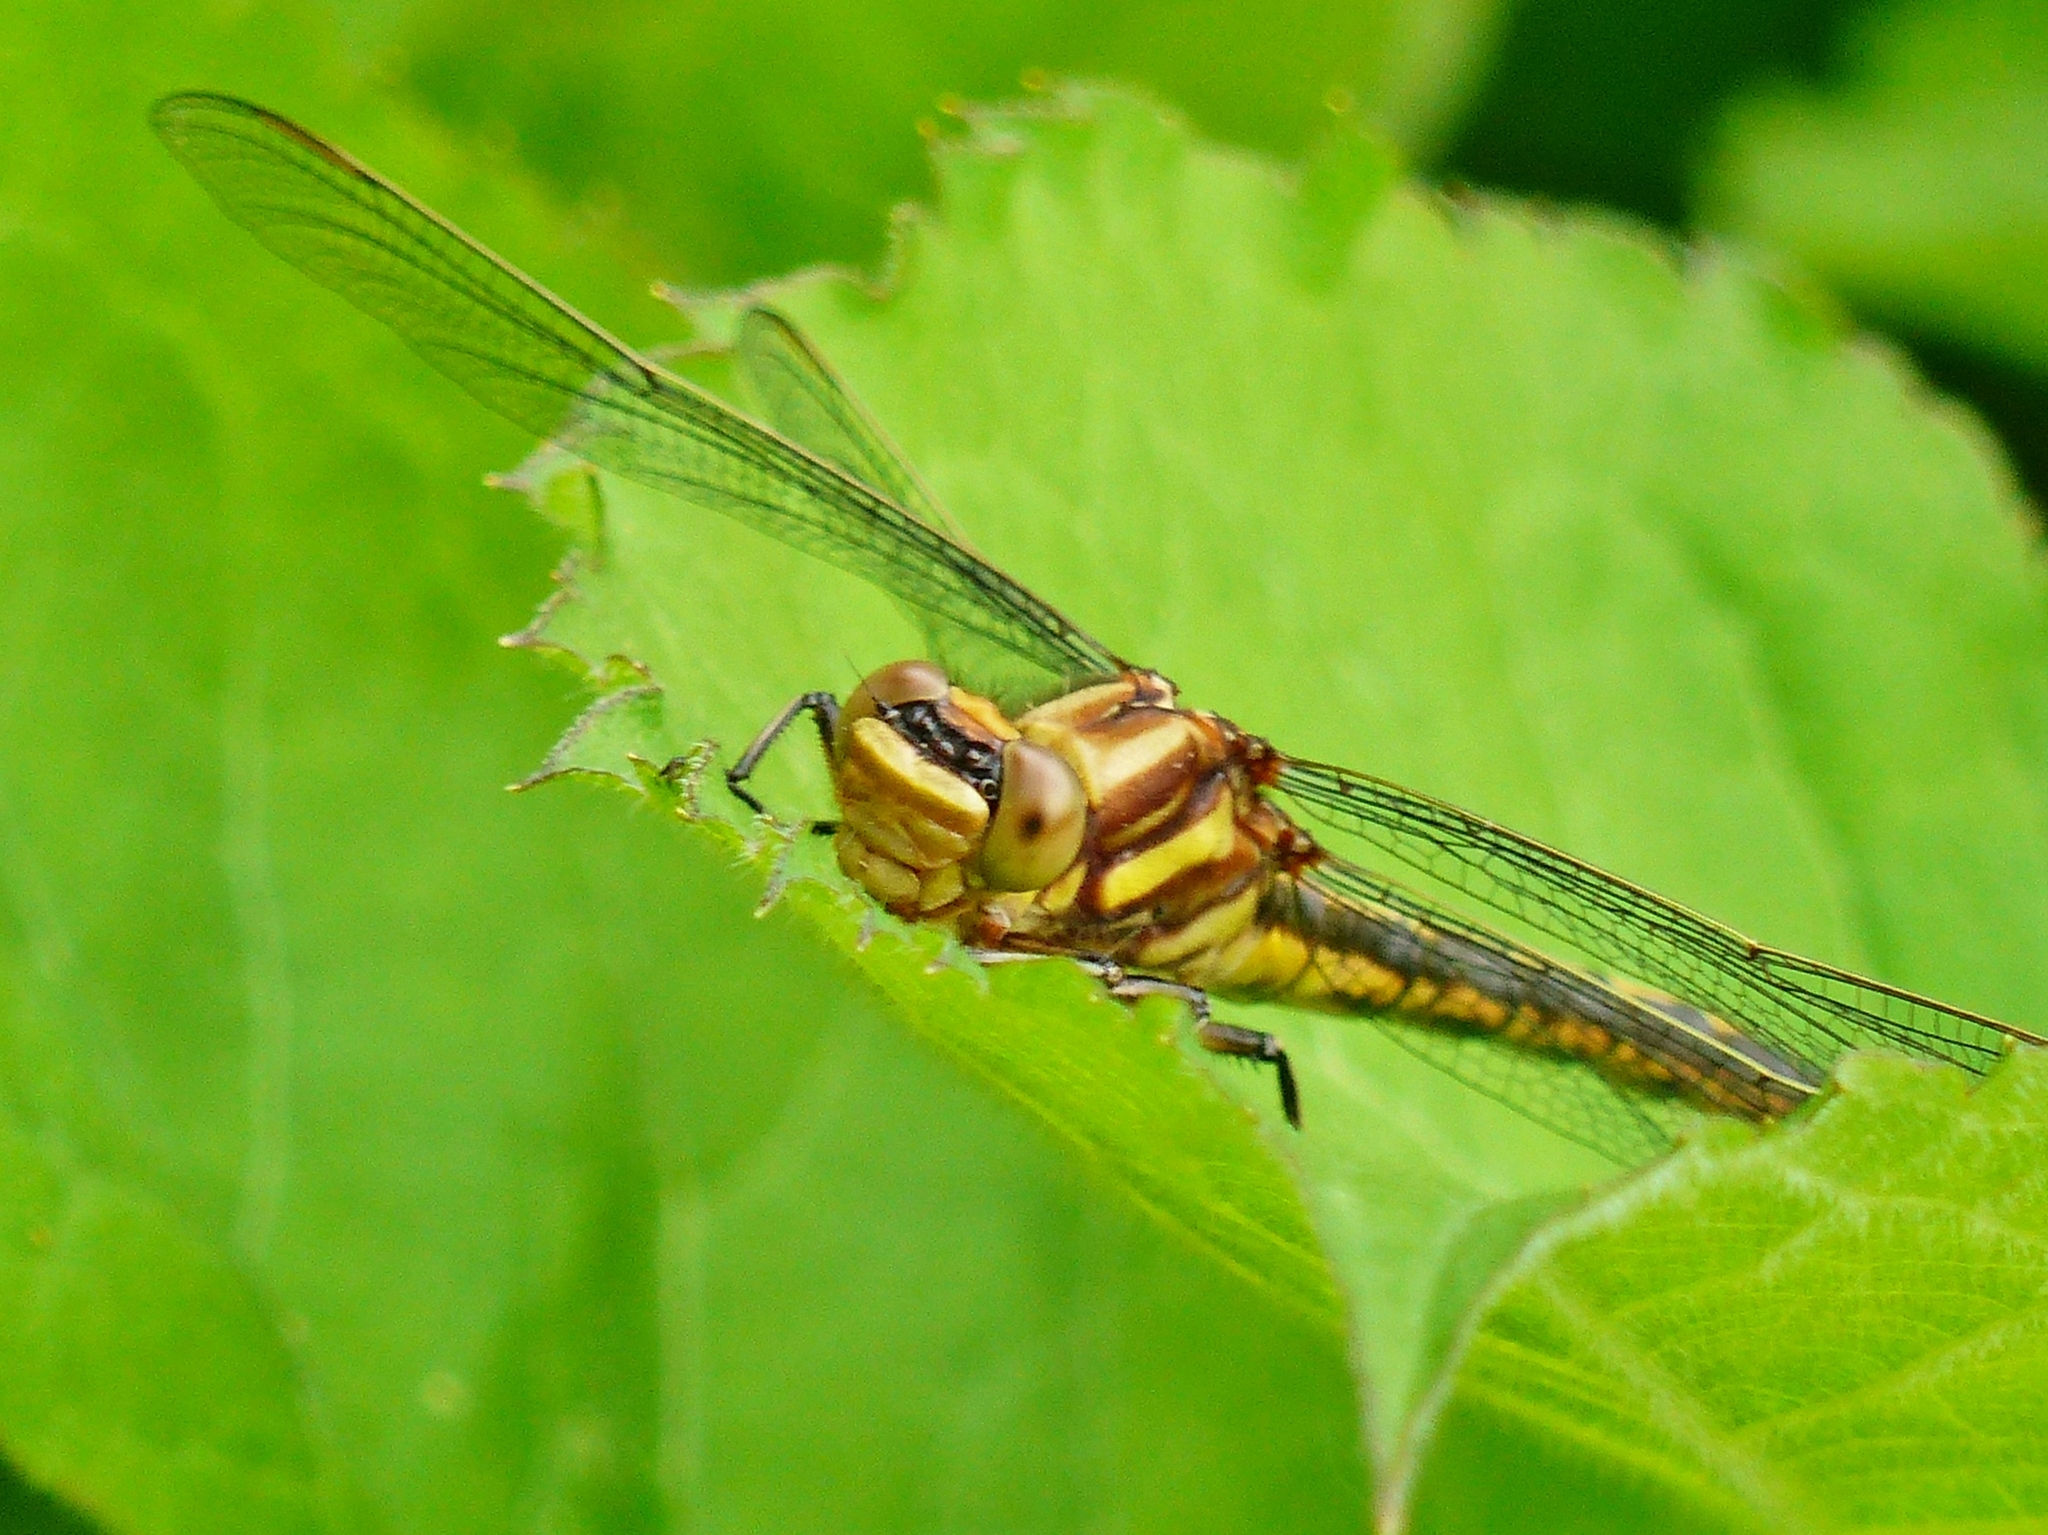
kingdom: Animalia
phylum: Arthropoda
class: Insecta
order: Odonata
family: Gomphidae
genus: Phanogomphus
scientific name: Phanogomphus spicatus
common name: Dusky clubtail
